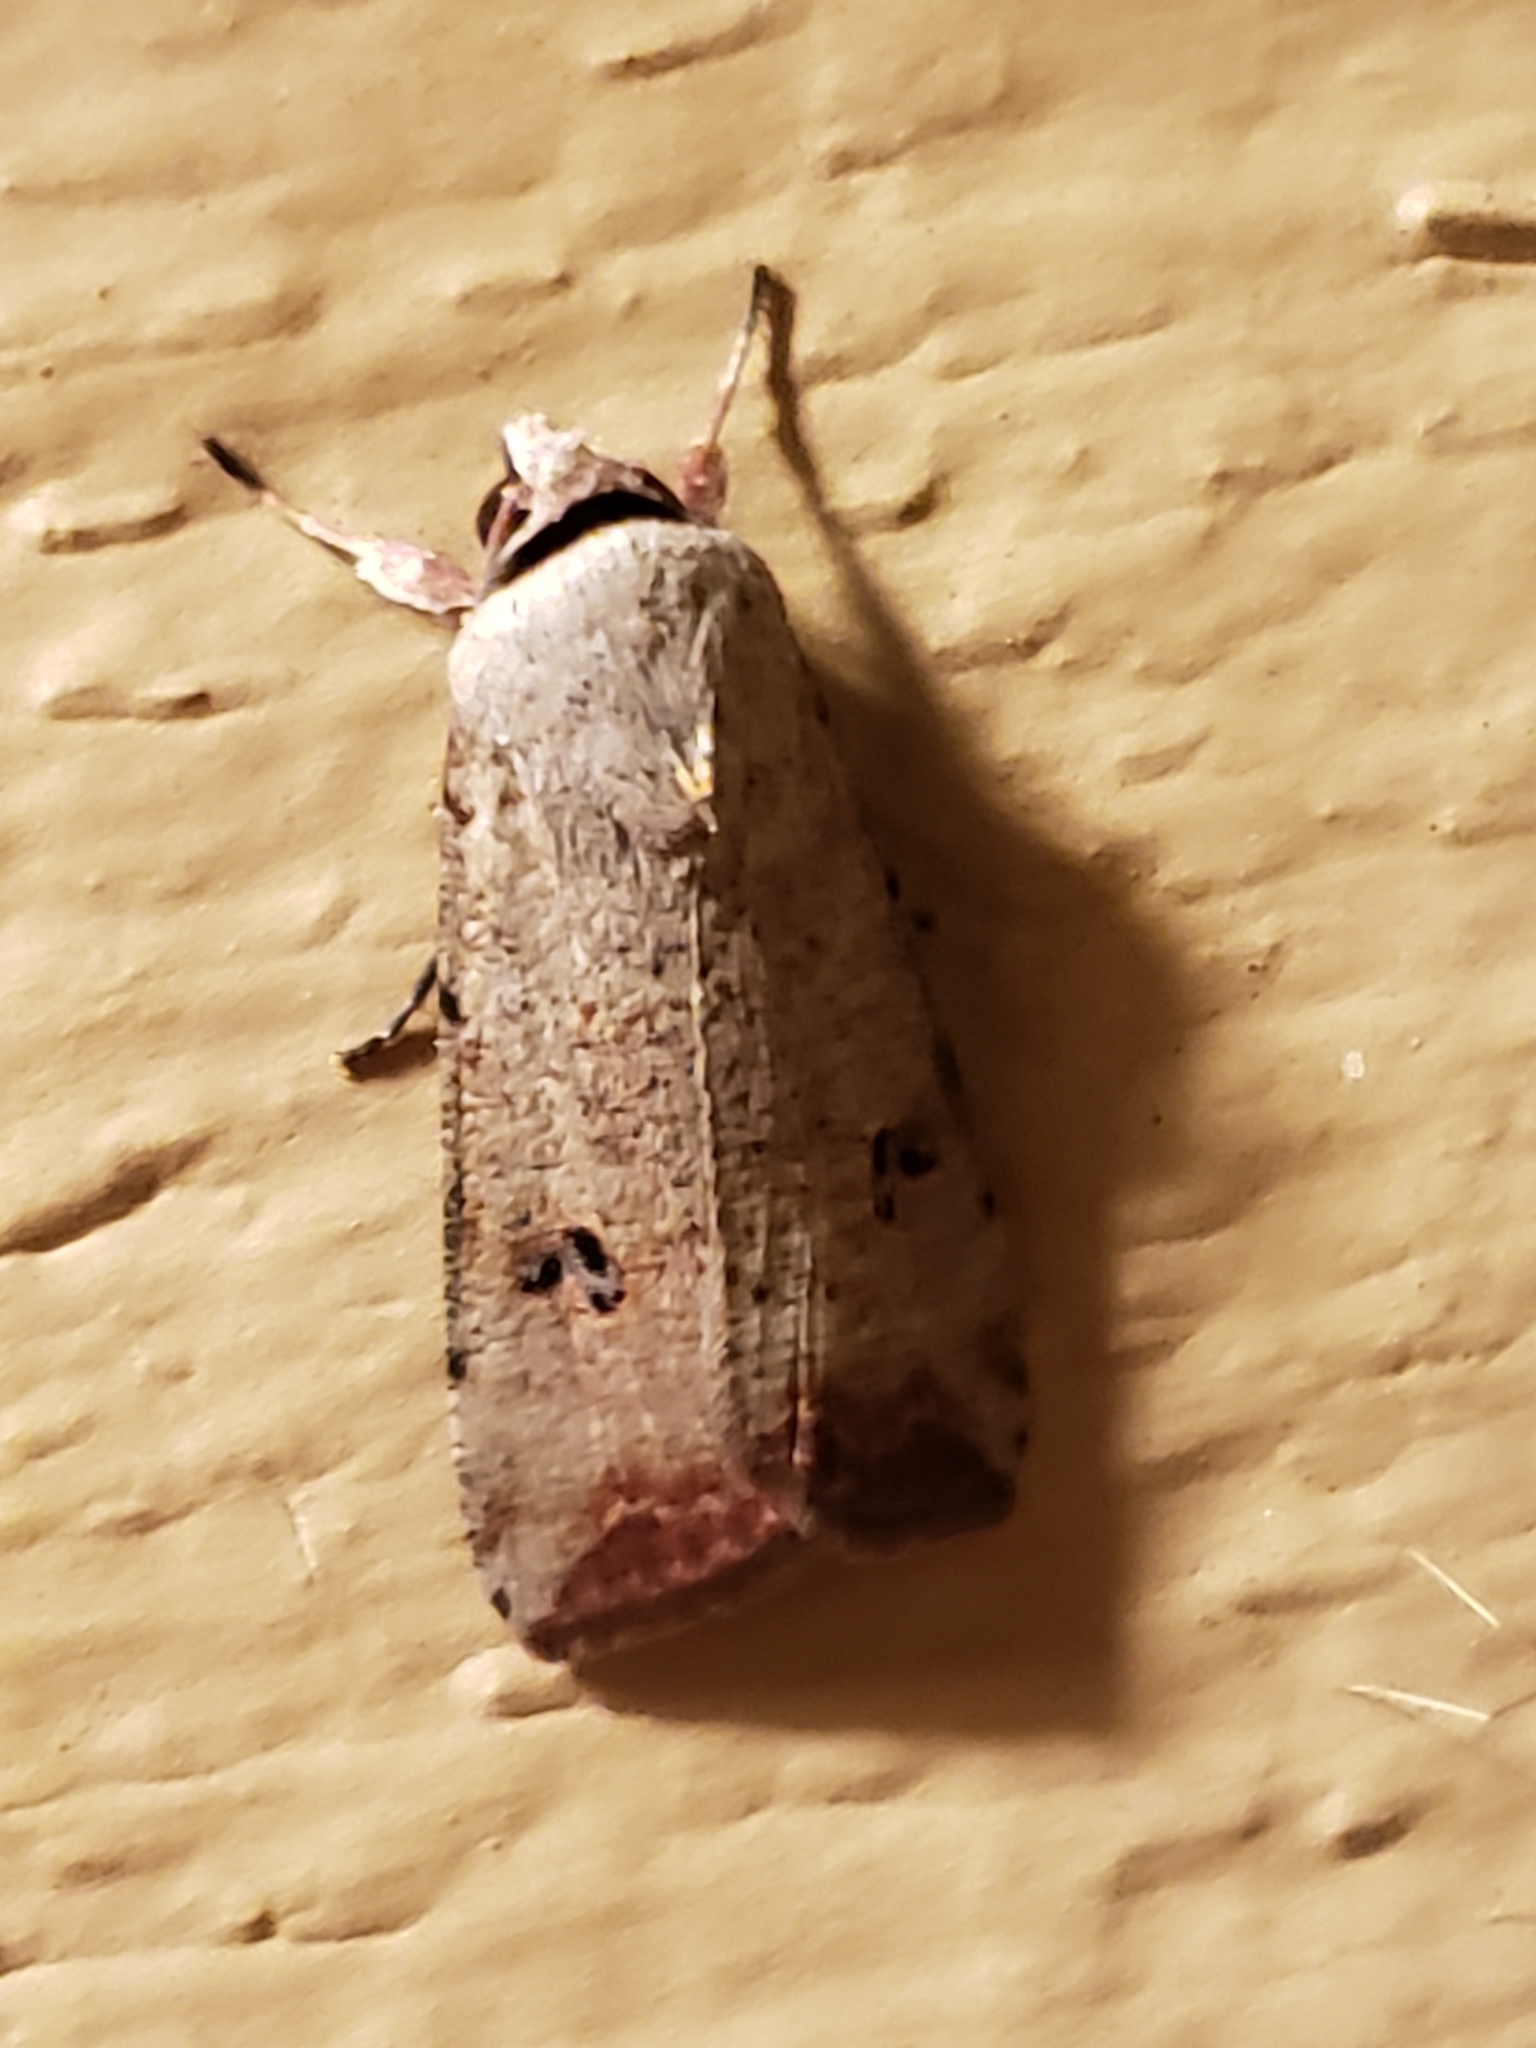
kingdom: Animalia
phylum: Arthropoda
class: Insecta
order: Lepidoptera
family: Noctuidae
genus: Anicla
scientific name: Anicla infecta
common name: Green cutworm
